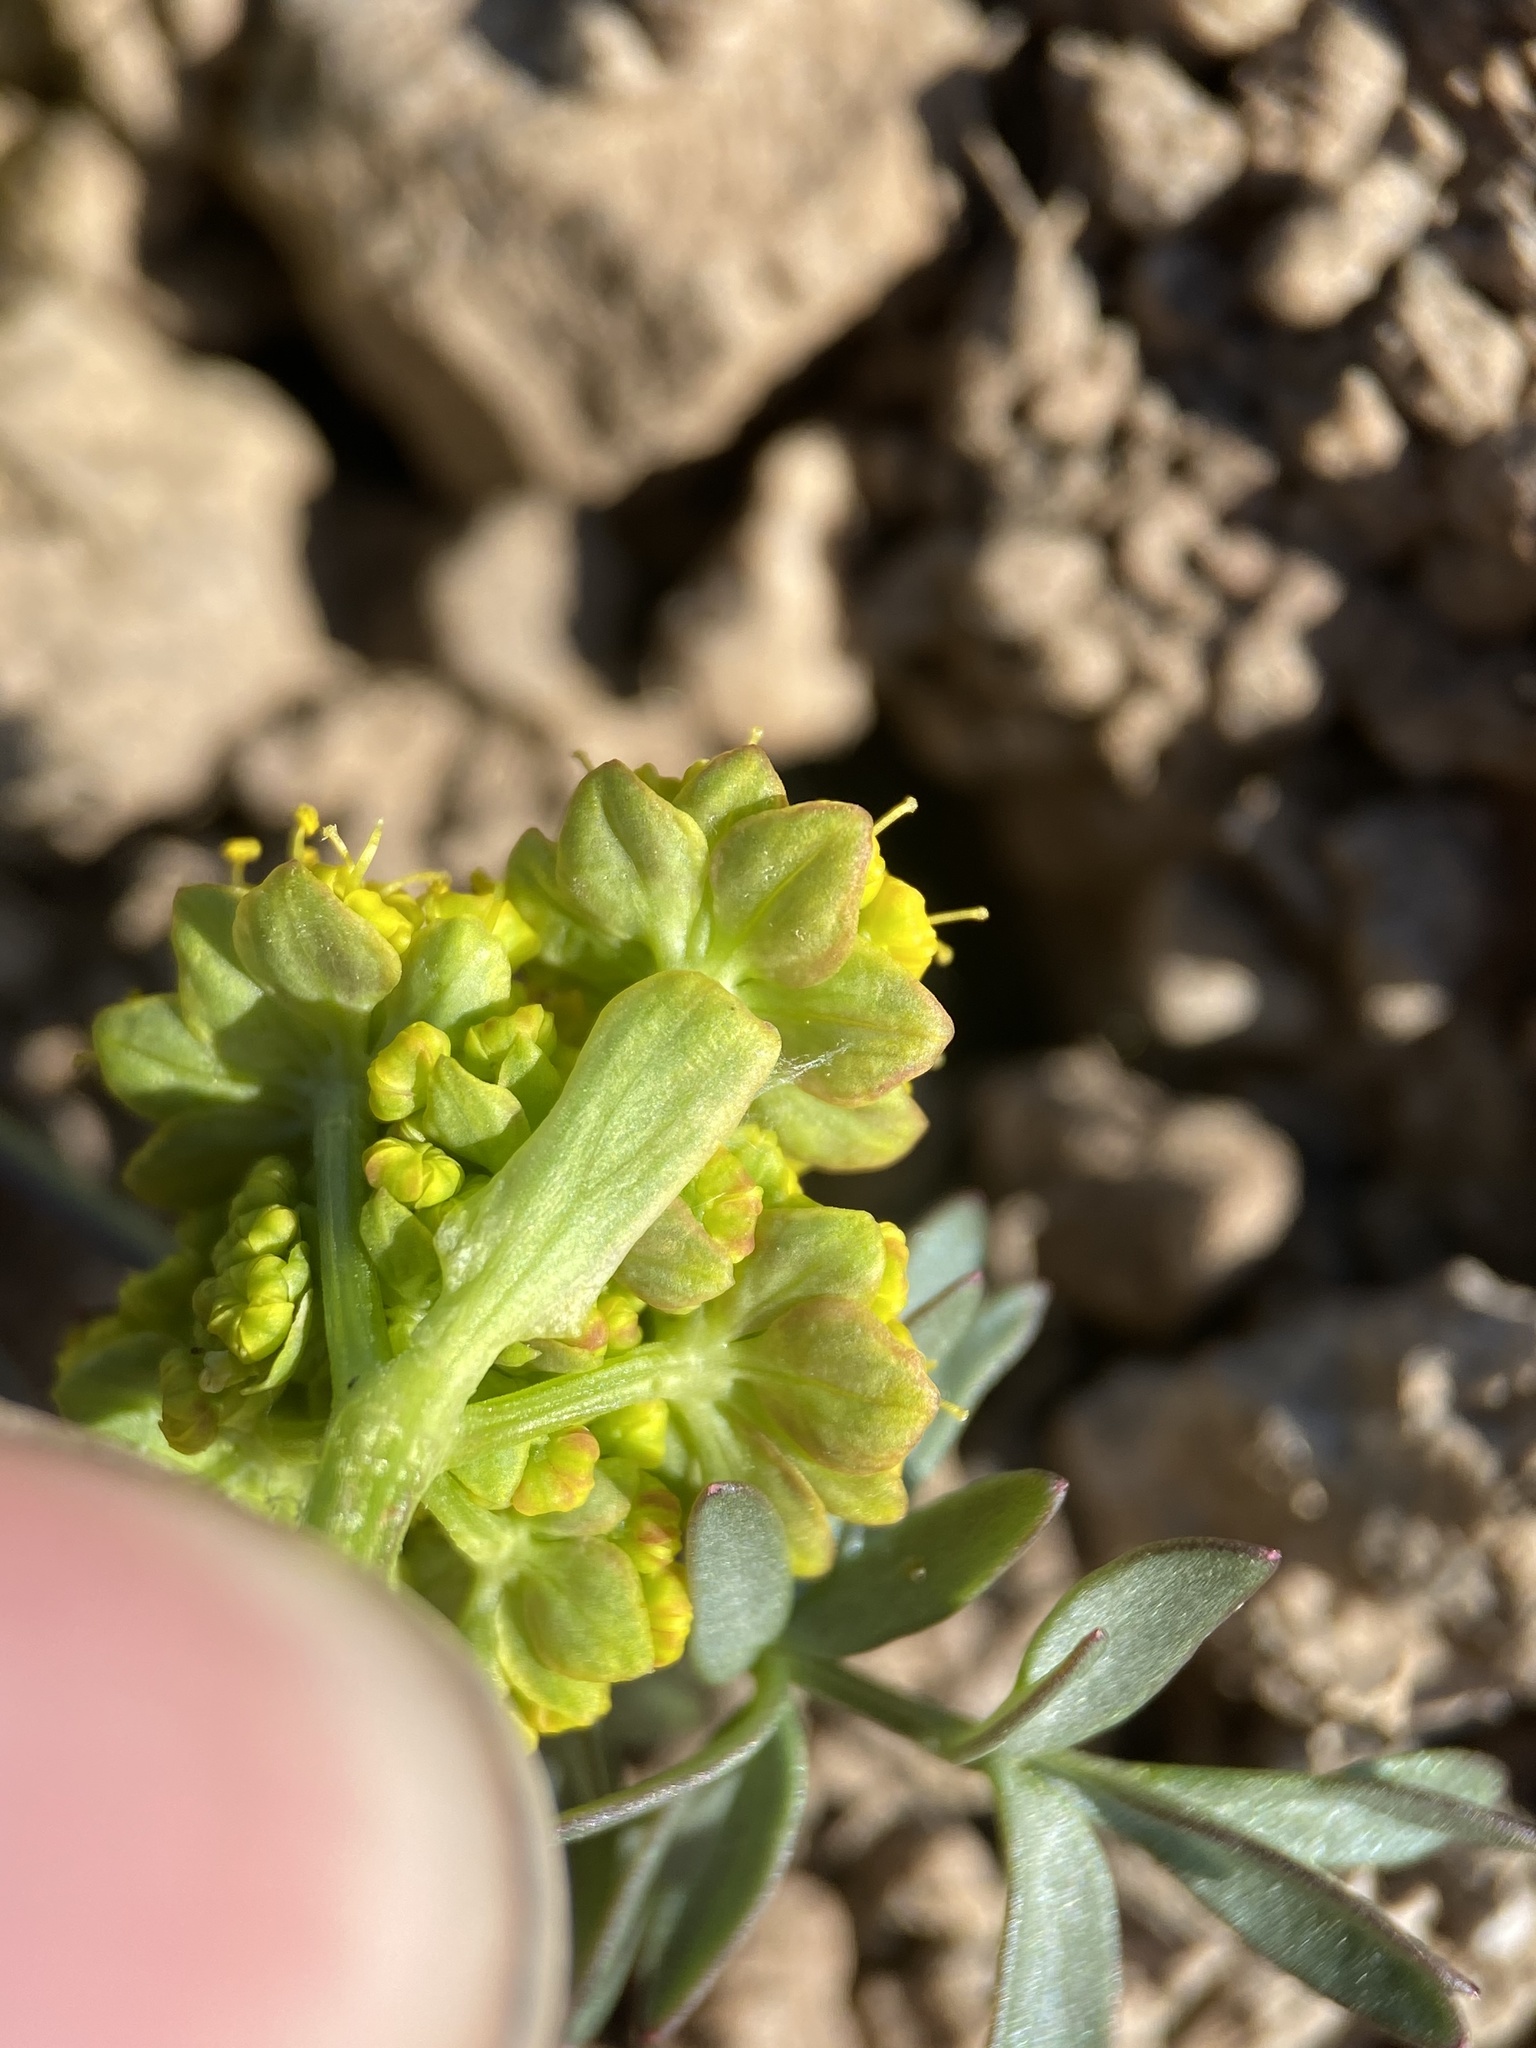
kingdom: Plantae
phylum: Tracheophyta
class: Magnoliopsida
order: Apiales
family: Apiaceae
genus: Lomatium
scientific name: Lomatium cous
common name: Biscuit-root
